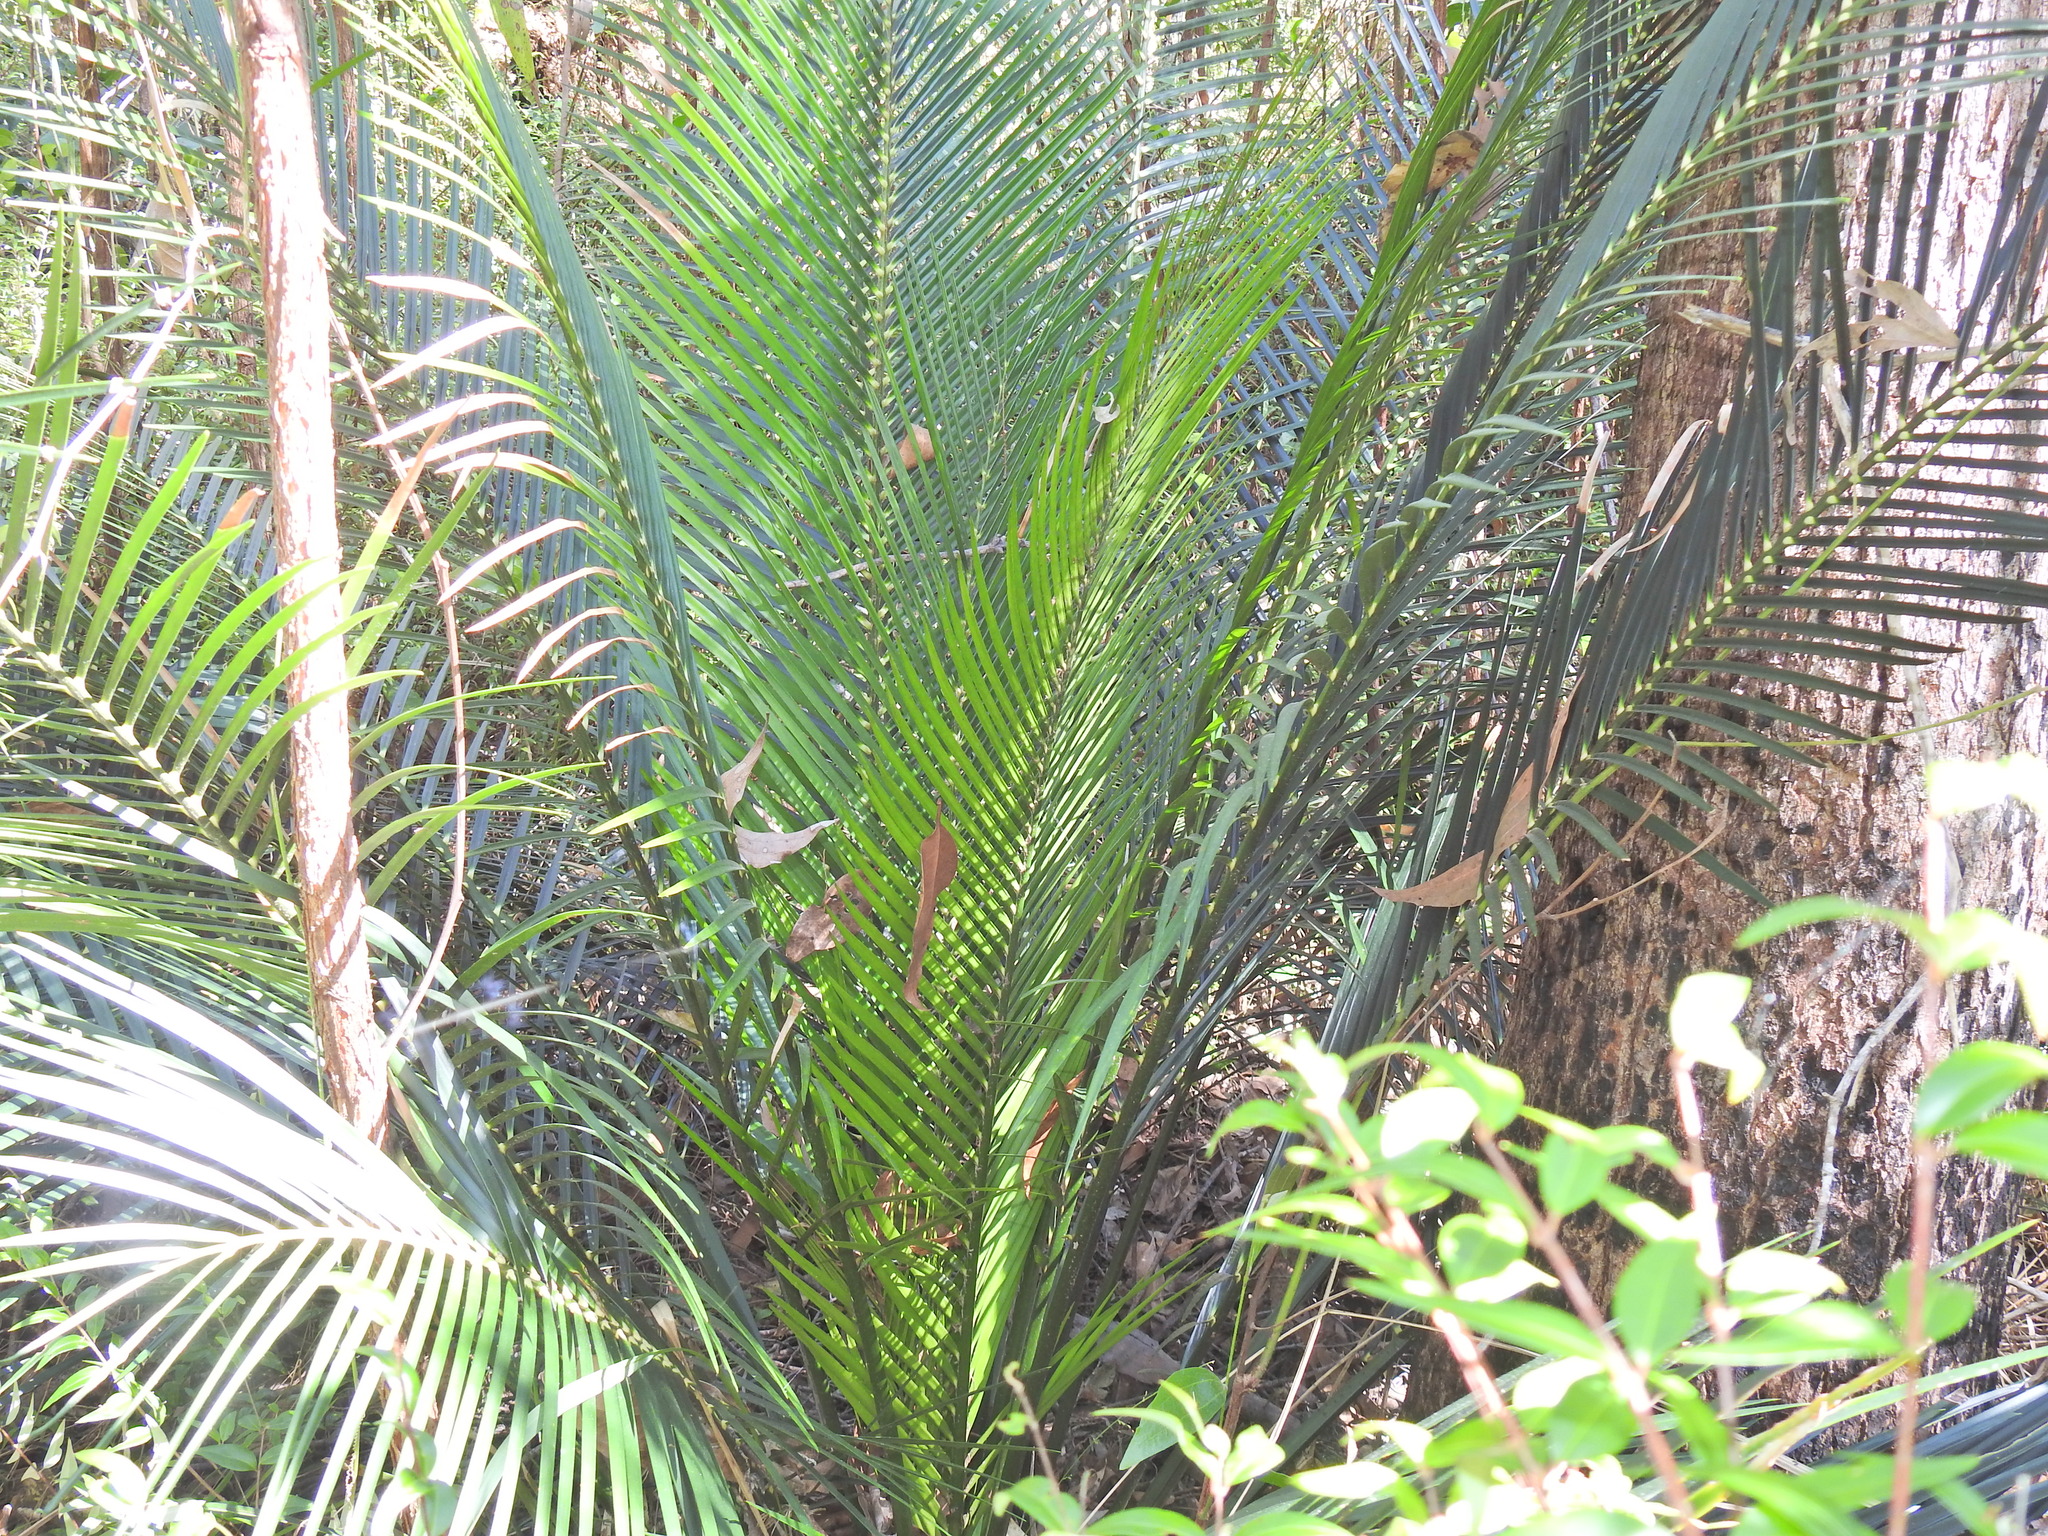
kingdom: Plantae
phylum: Tracheophyta
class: Cycadopsida
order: Cycadales
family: Zamiaceae
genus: Macrozamia
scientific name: Macrozamia douglasii
